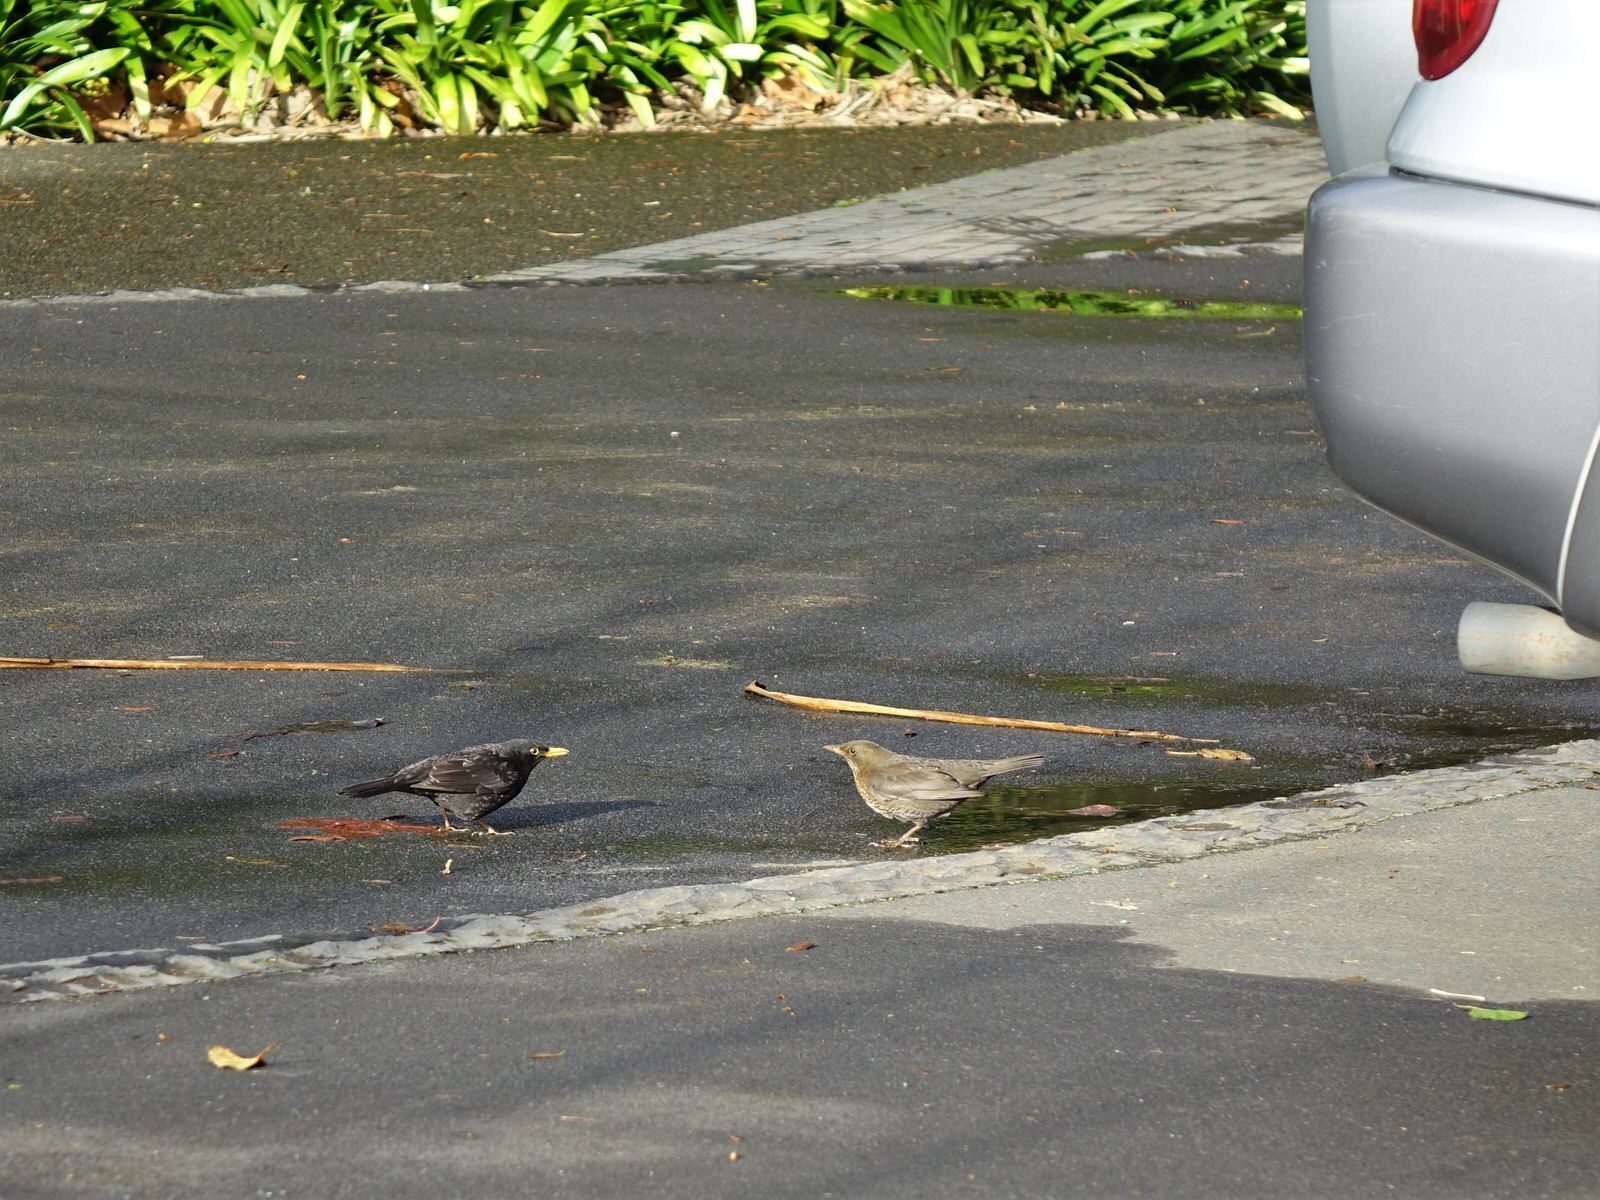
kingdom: Animalia
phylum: Chordata
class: Aves
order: Passeriformes
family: Turdidae
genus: Turdus
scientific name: Turdus merula
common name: Common blackbird
